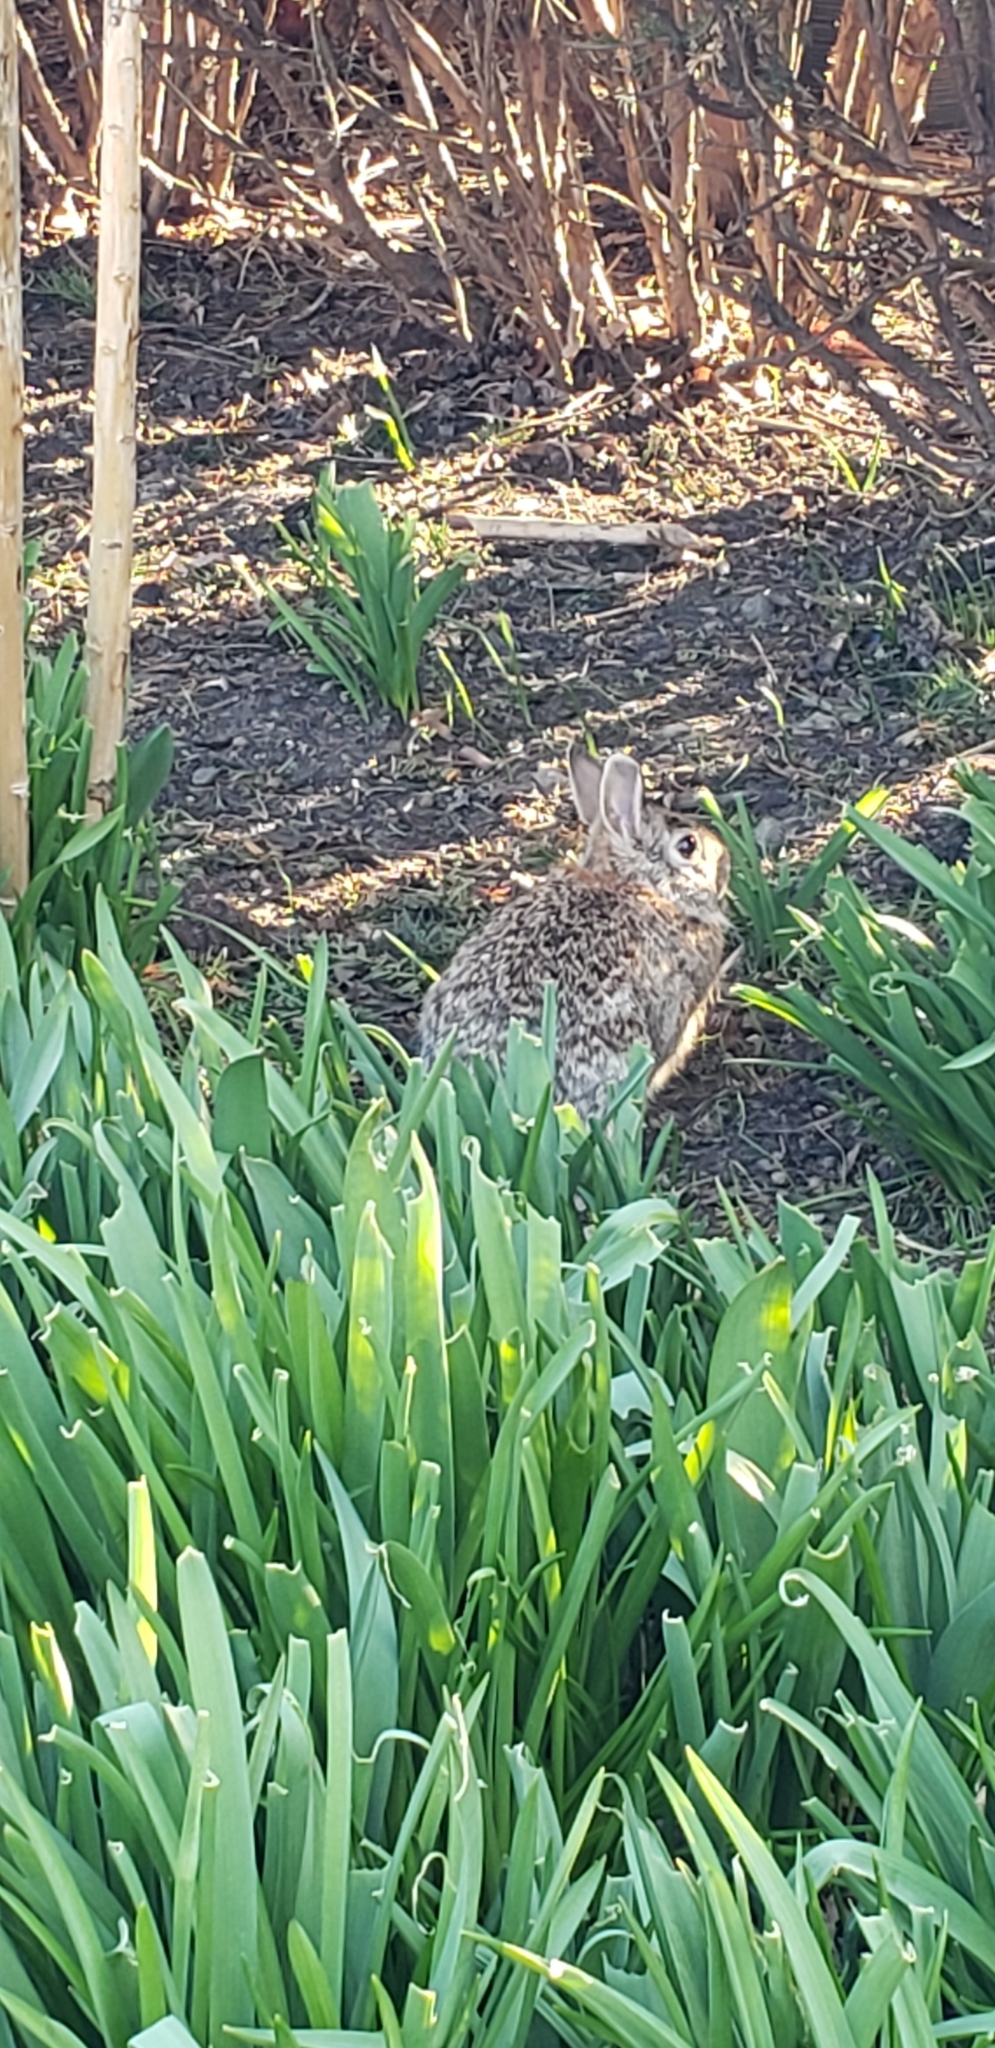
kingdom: Animalia
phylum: Chordata
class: Mammalia
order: Lagomorpha
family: Leporidae
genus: Sylvilagus
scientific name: Sylvilagus floridanus
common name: Eastern cottontail
